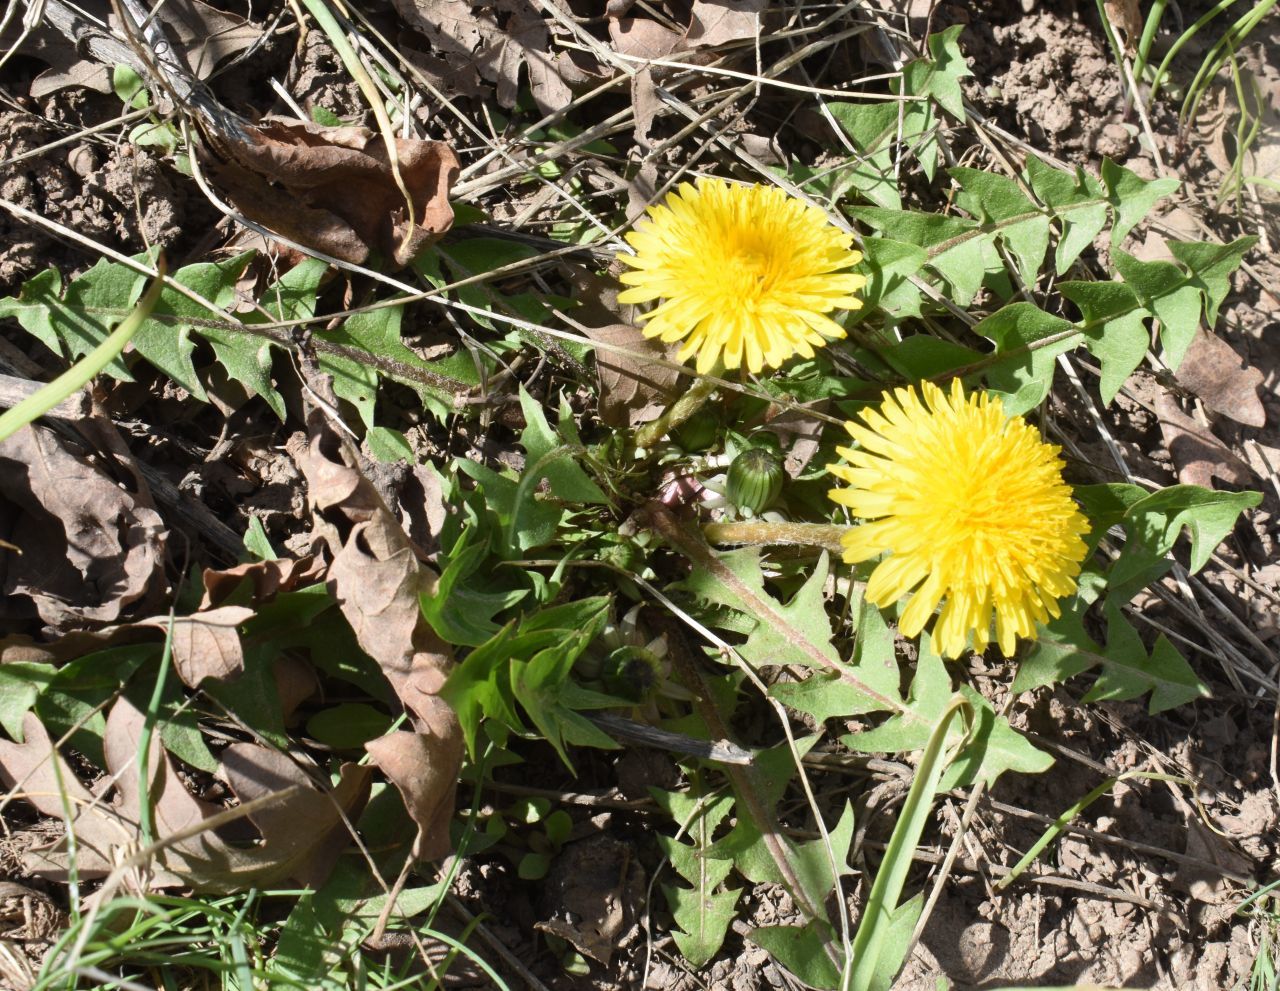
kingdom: Plantae
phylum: Tracheophyta
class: Magnoliopsida
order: Asterales
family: Asteraceae
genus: Taraxacum
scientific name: Taraxacum officinale
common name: Common dandelion
